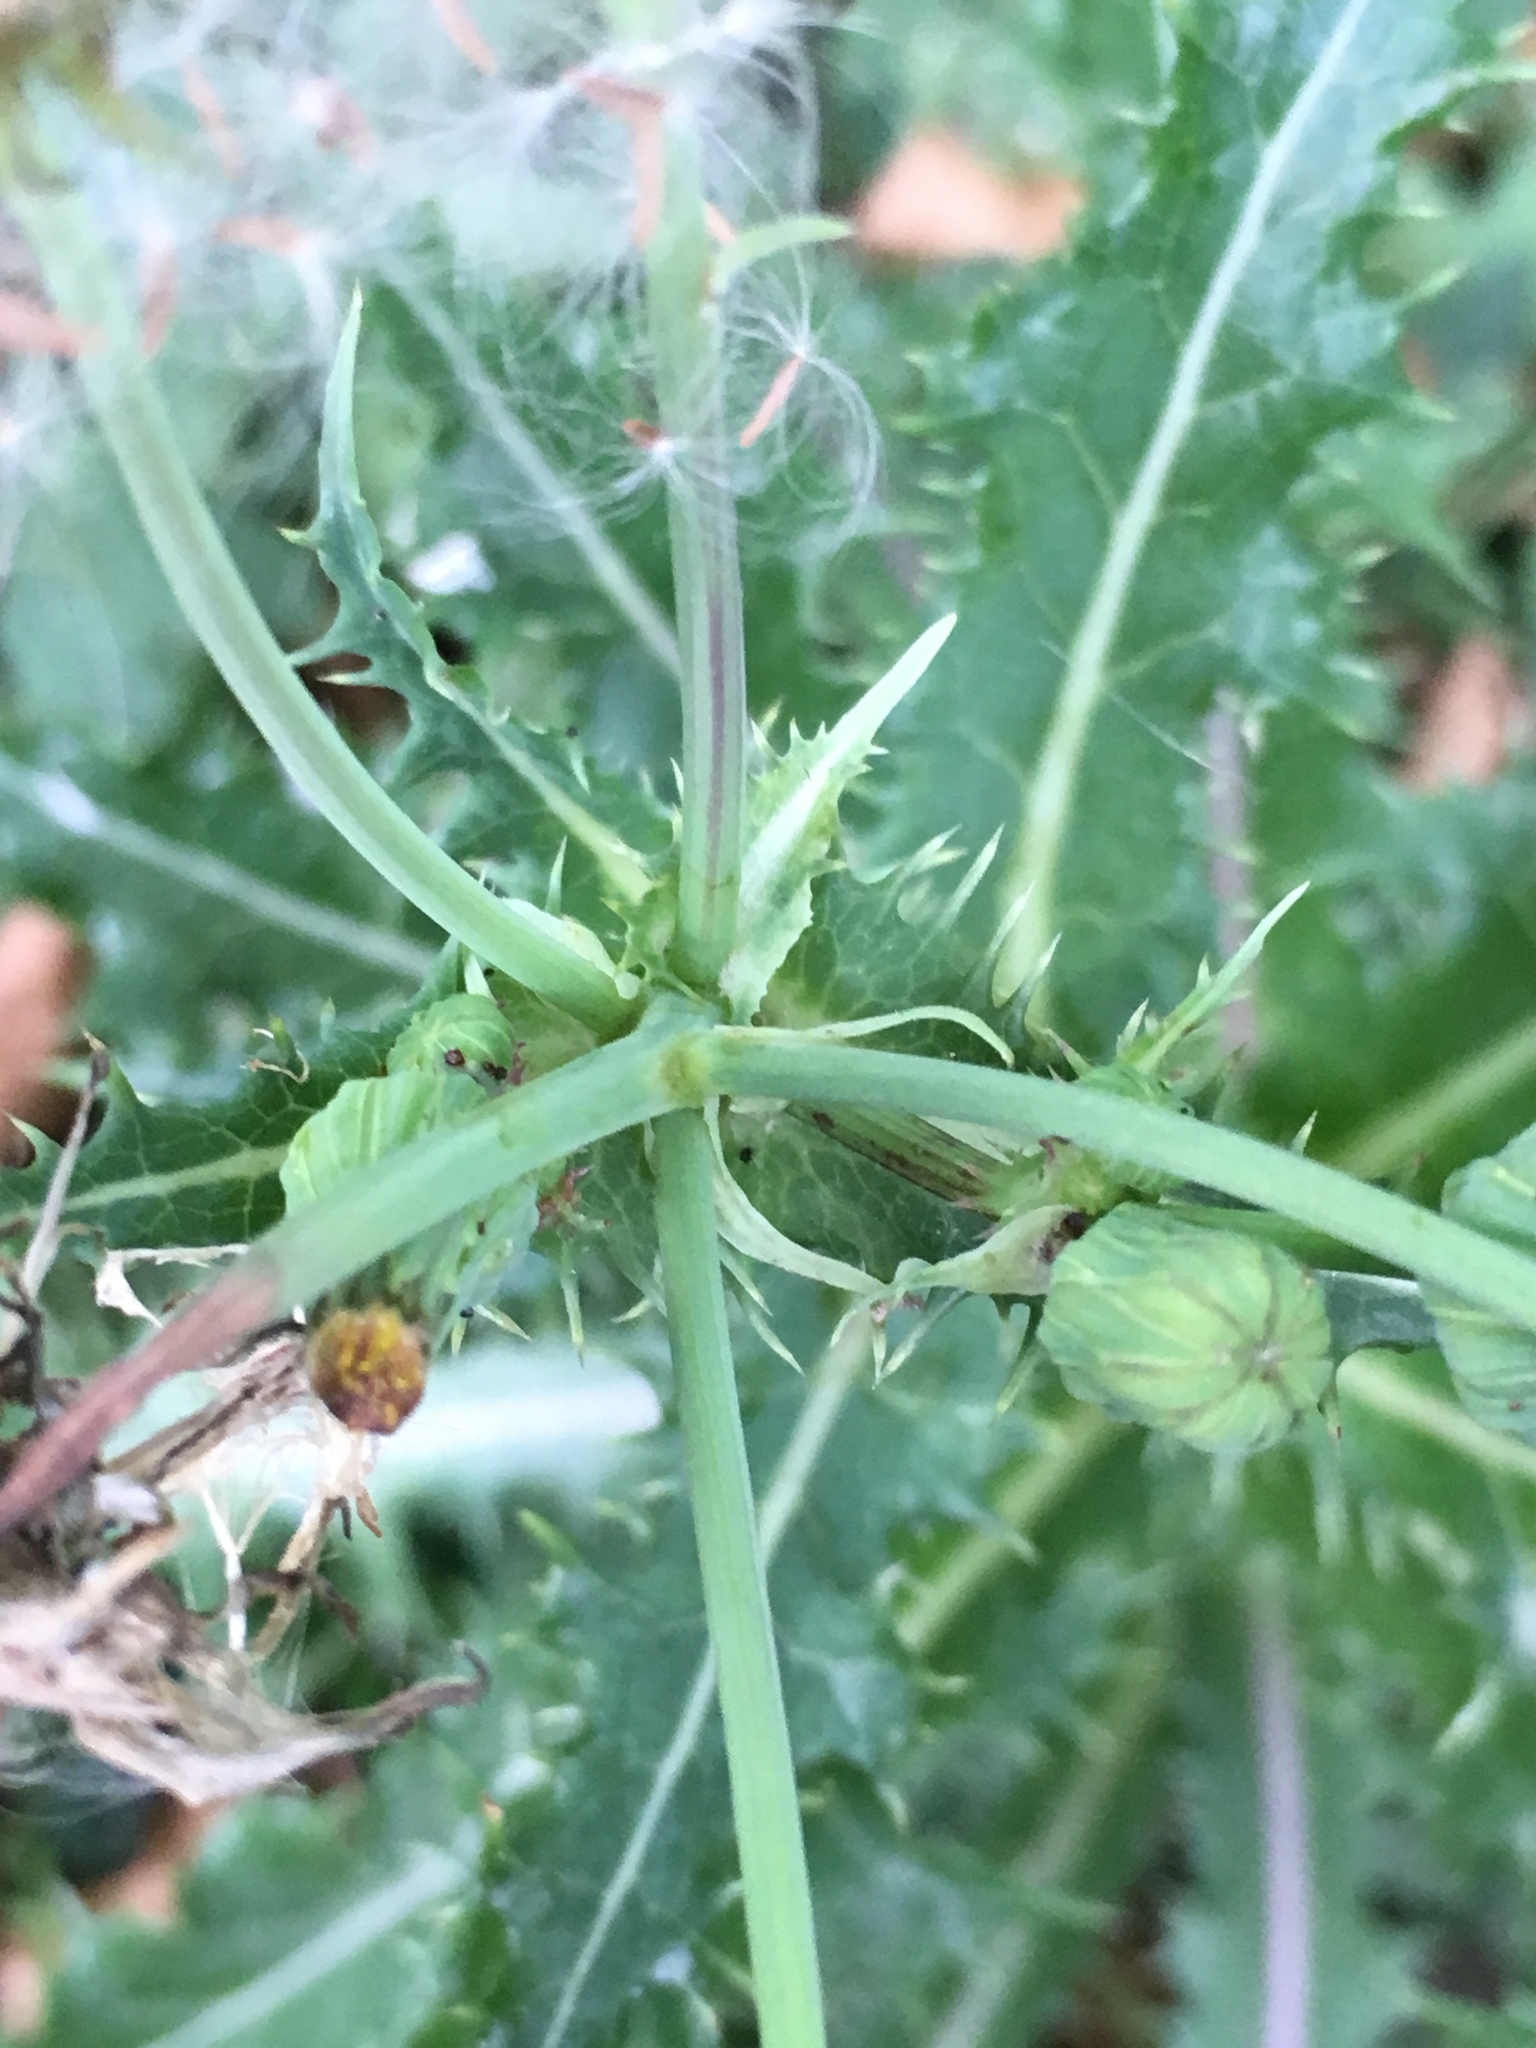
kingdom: Plantae
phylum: Tracheophyta
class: Magnoliopsida
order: Asterales
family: Asteraceae
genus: Cirsium
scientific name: Cirsium arvense
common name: Creeping thistle
